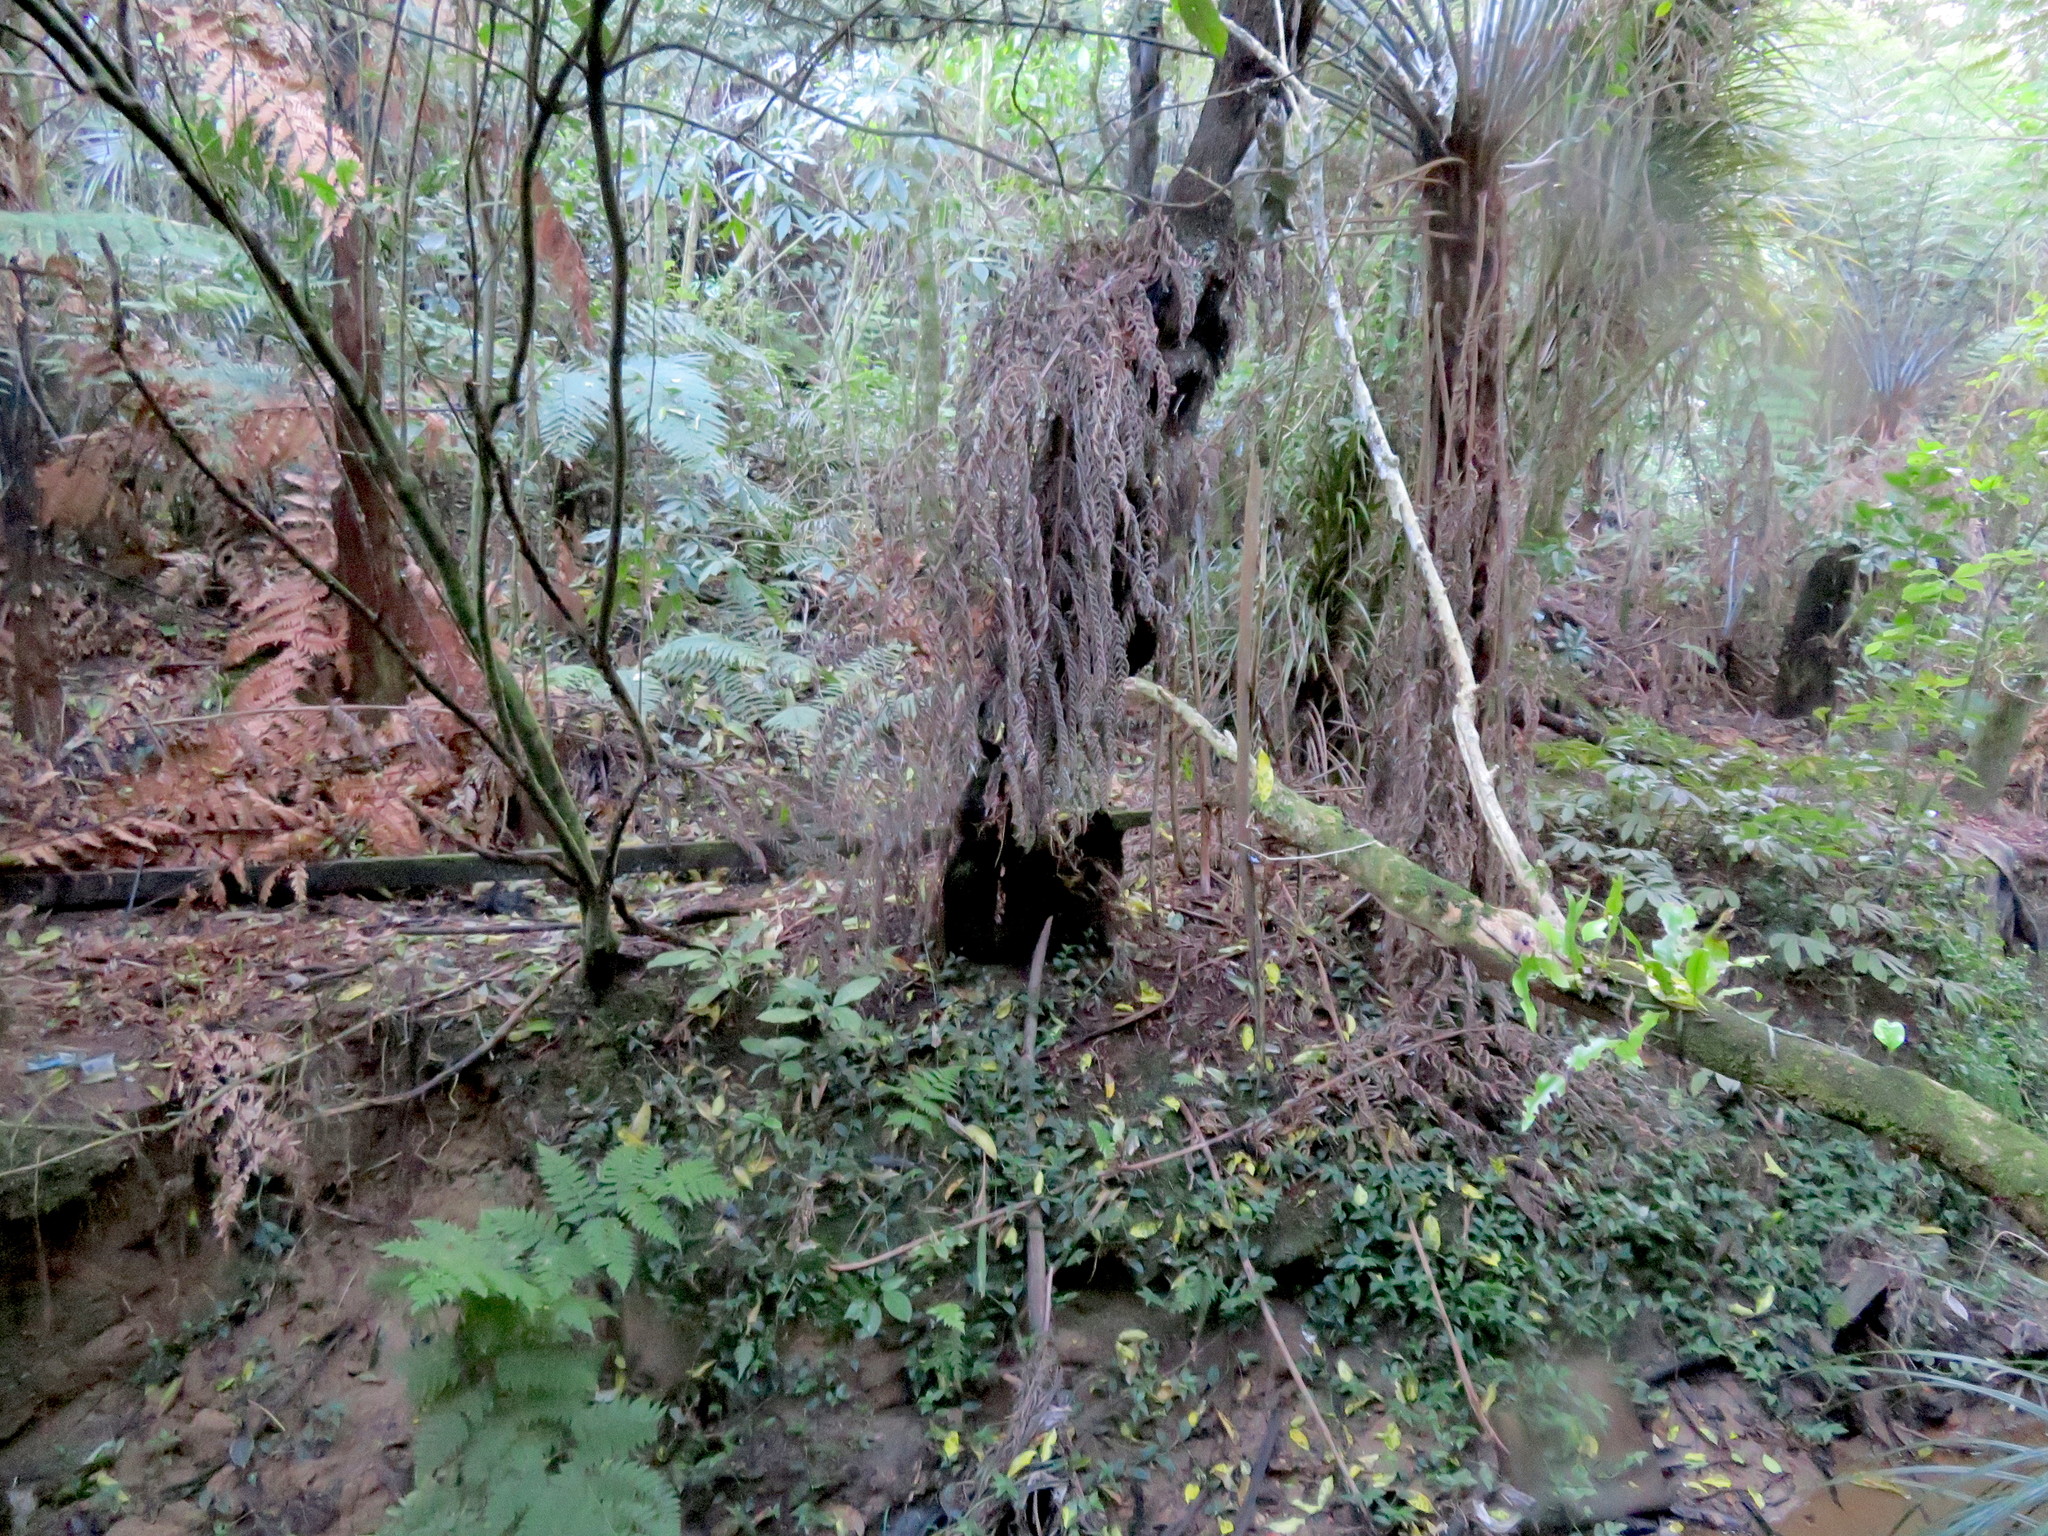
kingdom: Plantae
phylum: Tracheophyta
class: Liliopsida
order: Commelinales
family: Commelinaceae
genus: Tradescantia
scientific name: Tradescantia fluminensis
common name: Wandering-jew
